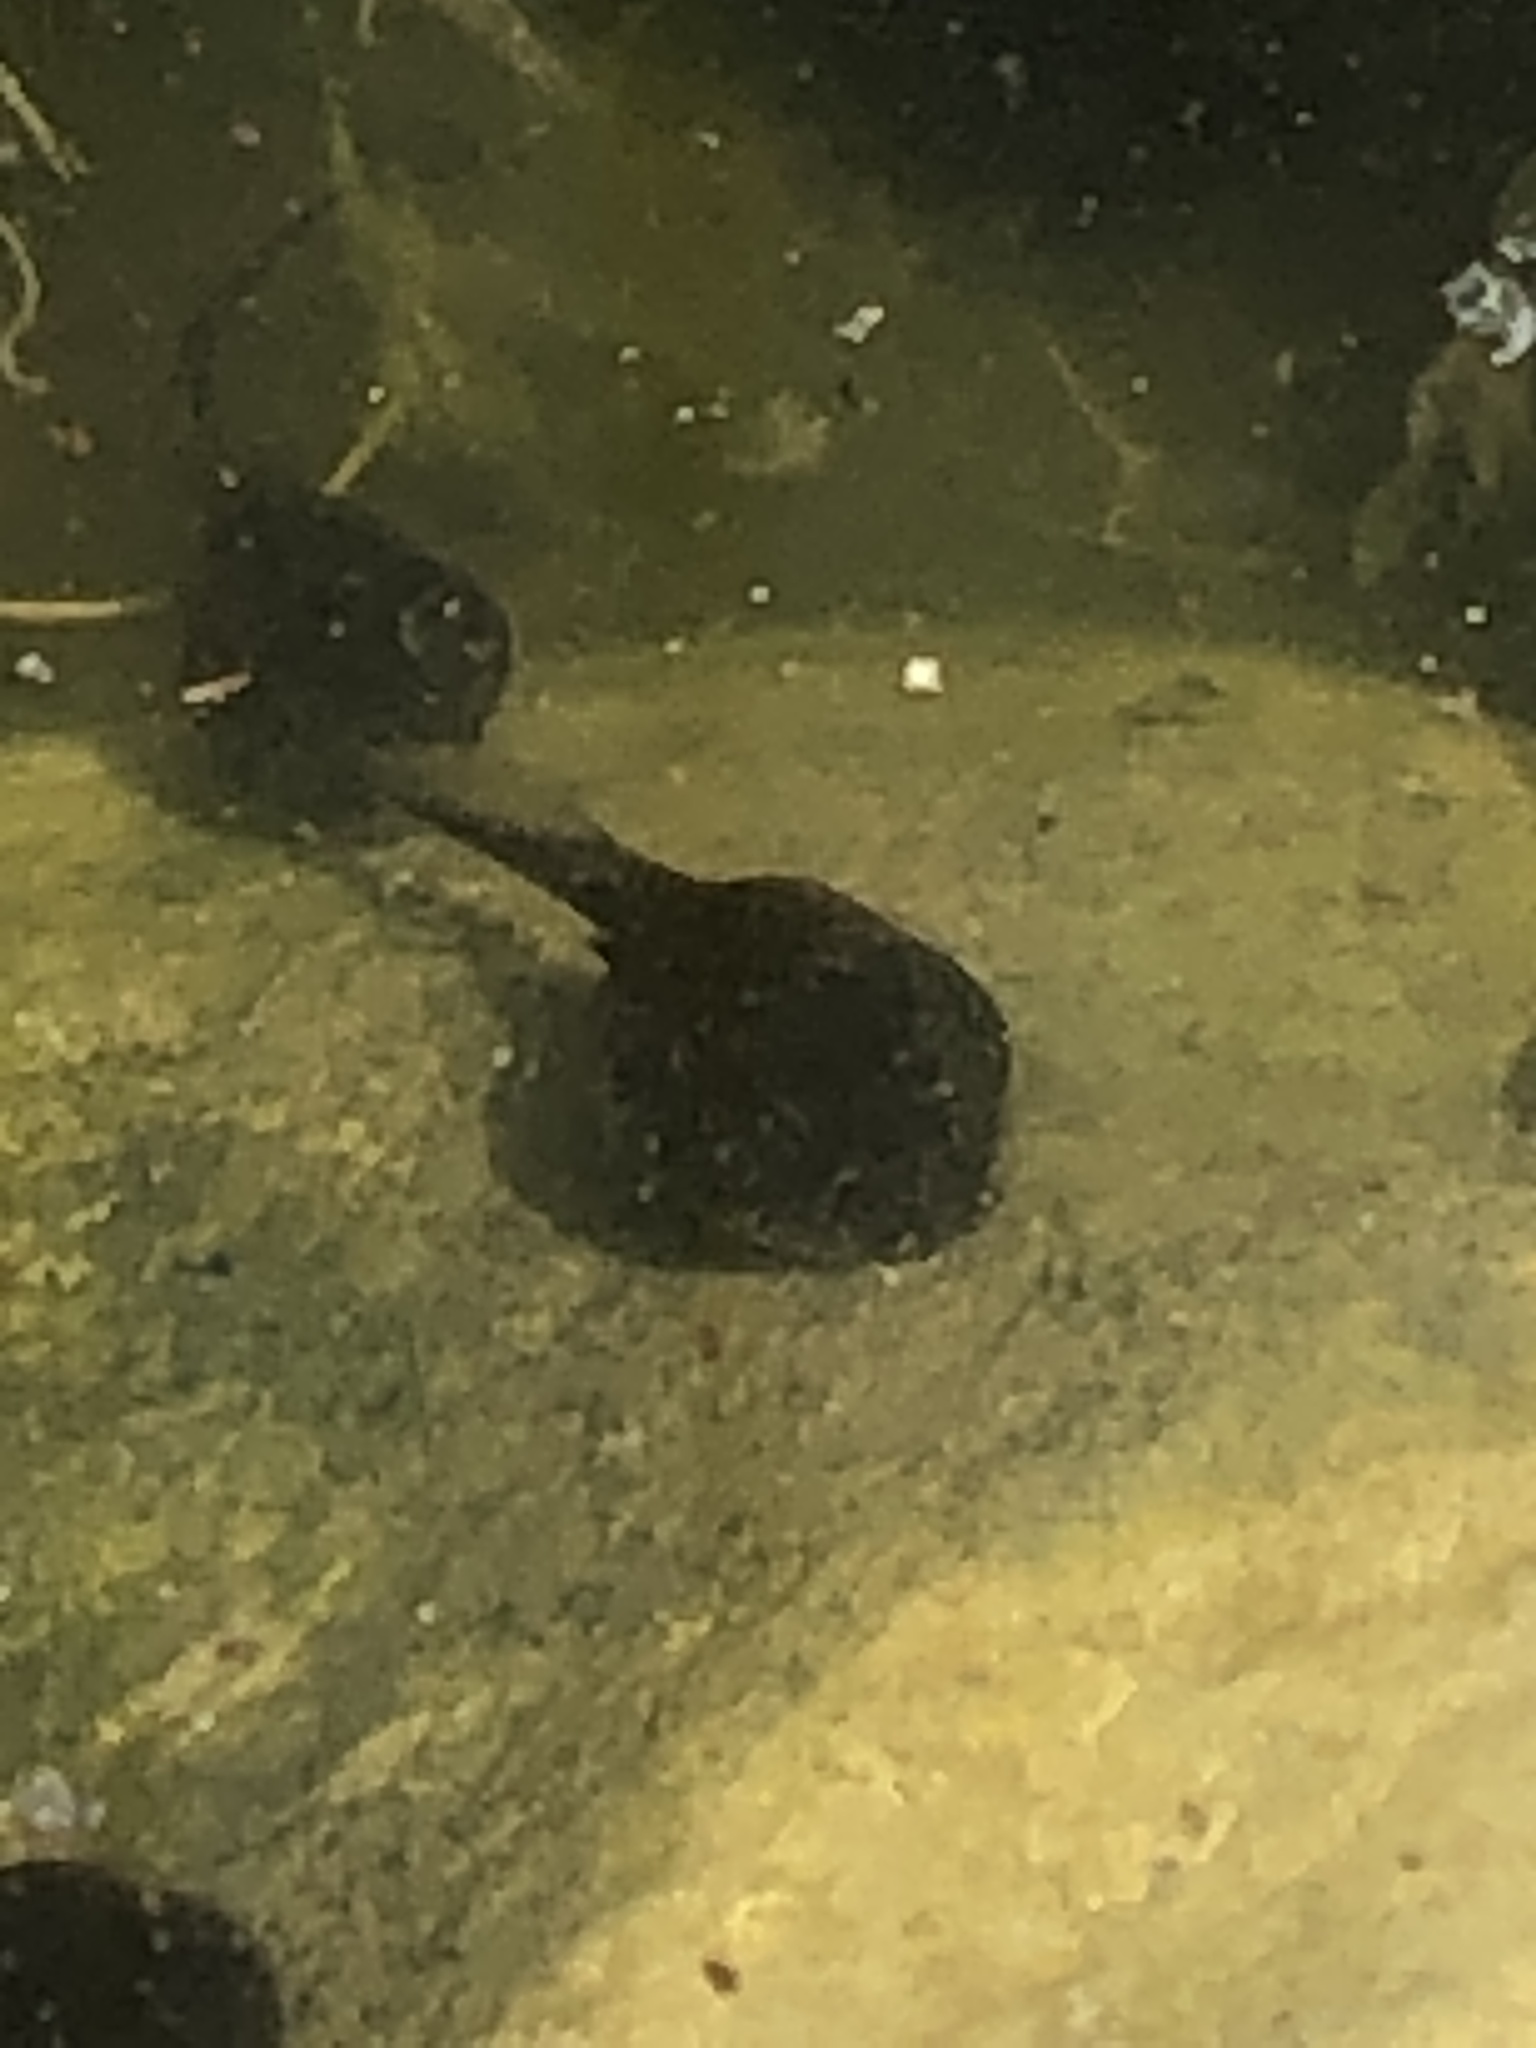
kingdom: Animalia
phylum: Chordata
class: Amphibia
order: Anura
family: Bufonidae
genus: Anaxyrus
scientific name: Anaxyrus americanus
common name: American toad
